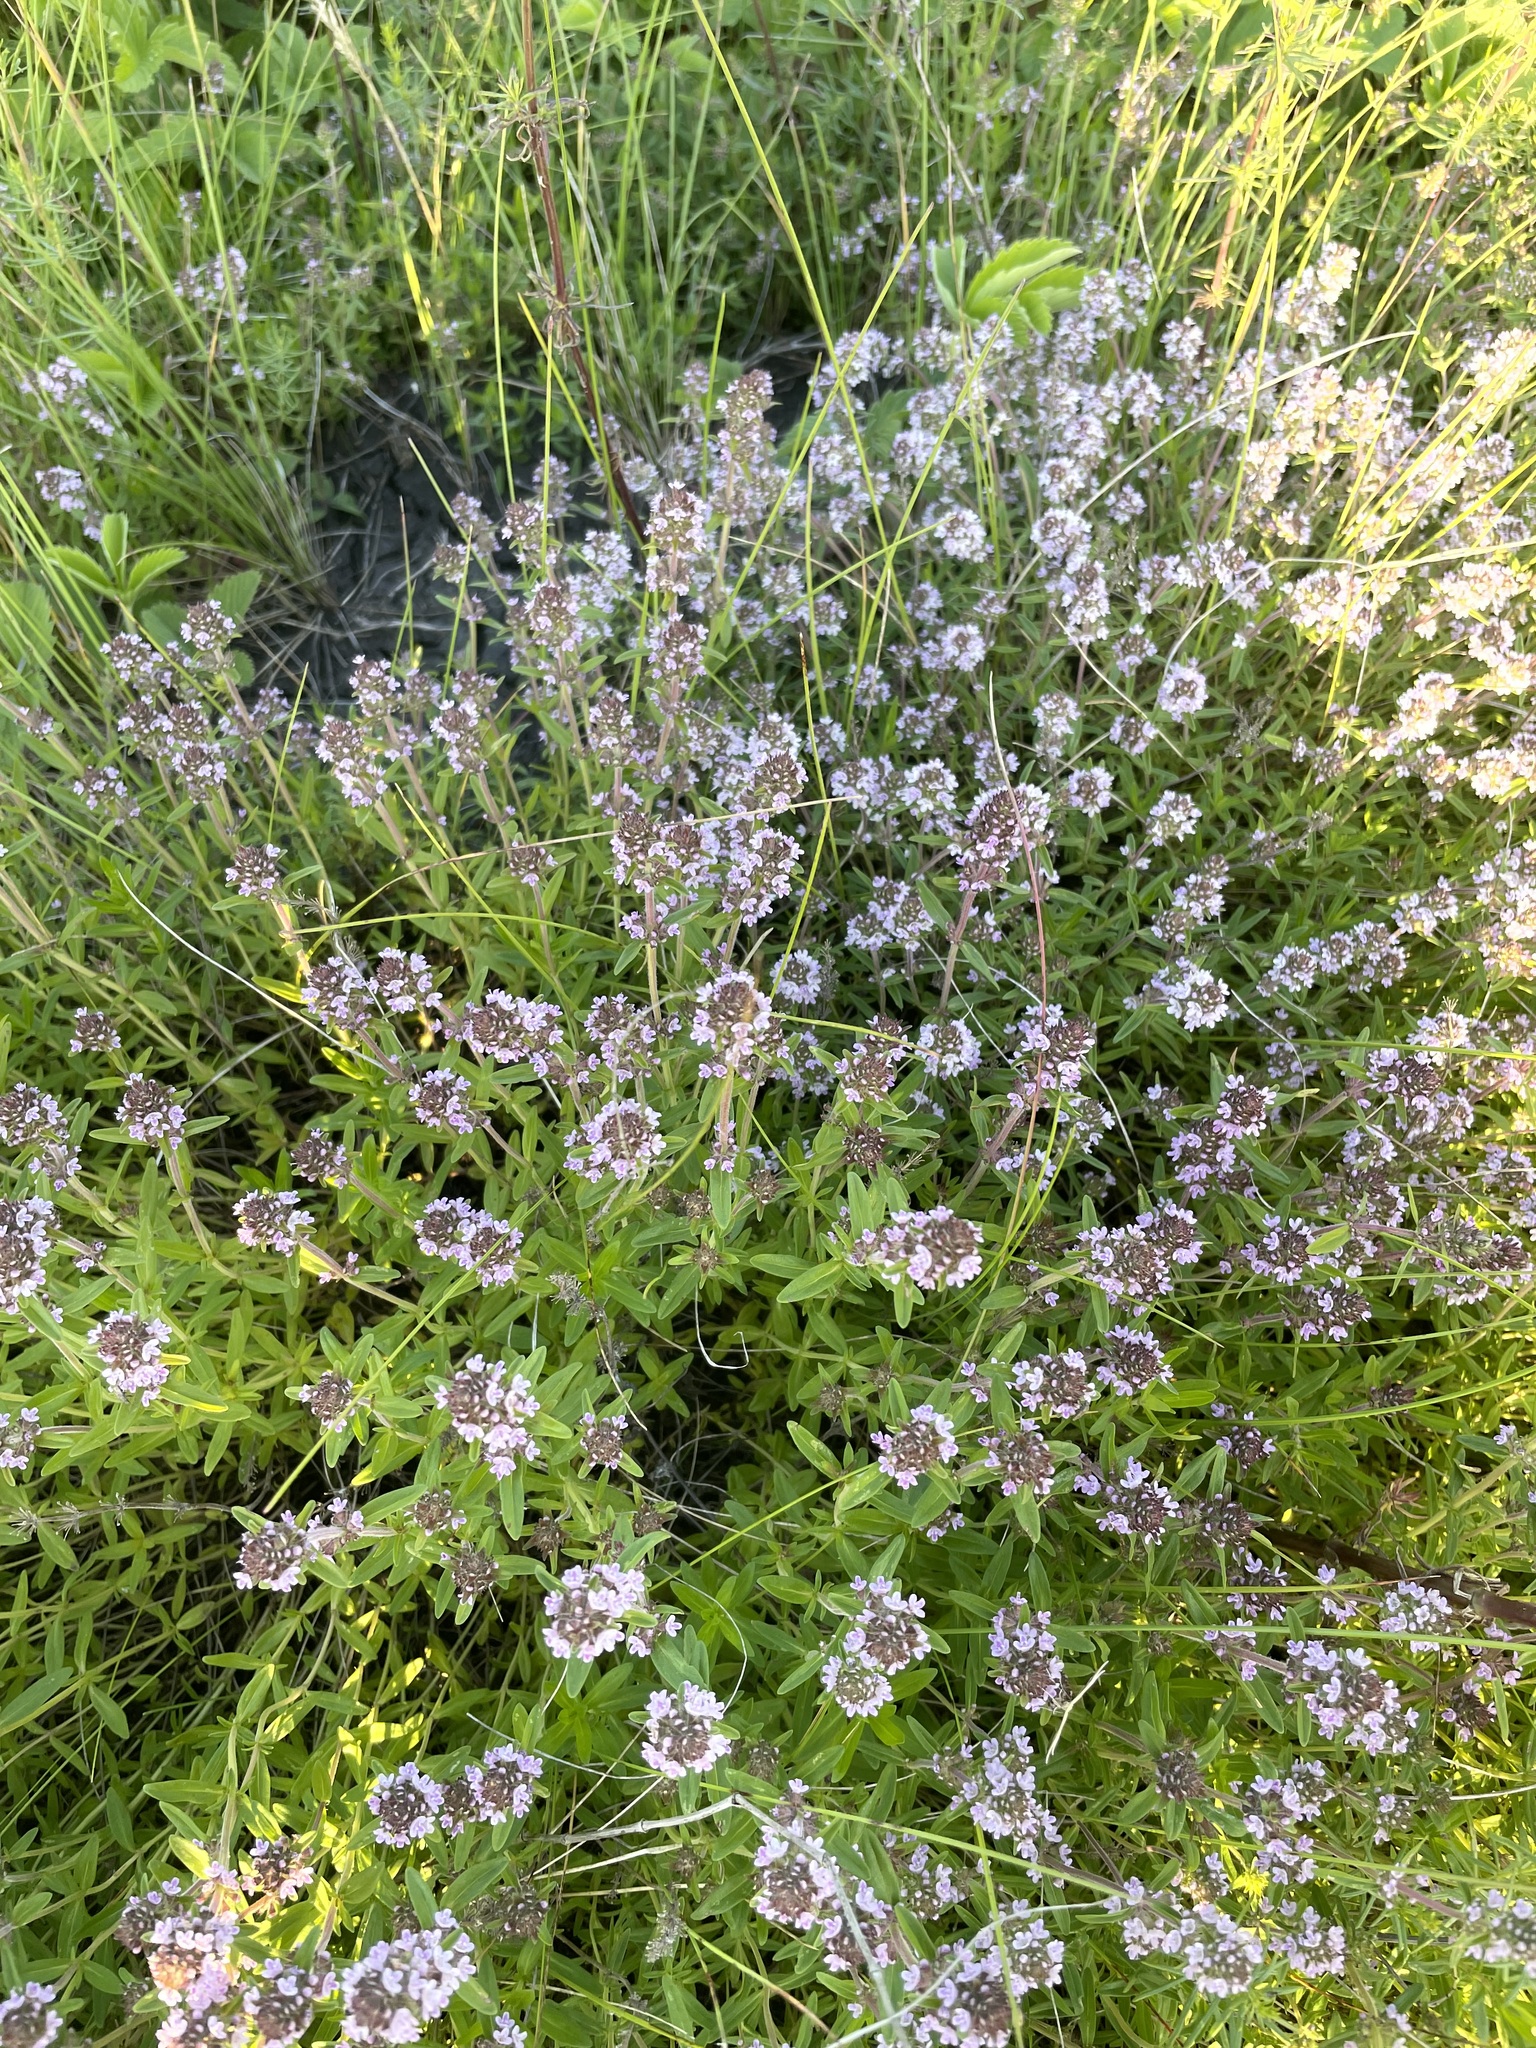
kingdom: Plantae
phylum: Tracheophyta
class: Magnoliopsida
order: Lamiales
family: Lamiaceae
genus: Thymus
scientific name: Thymus pannonicus
